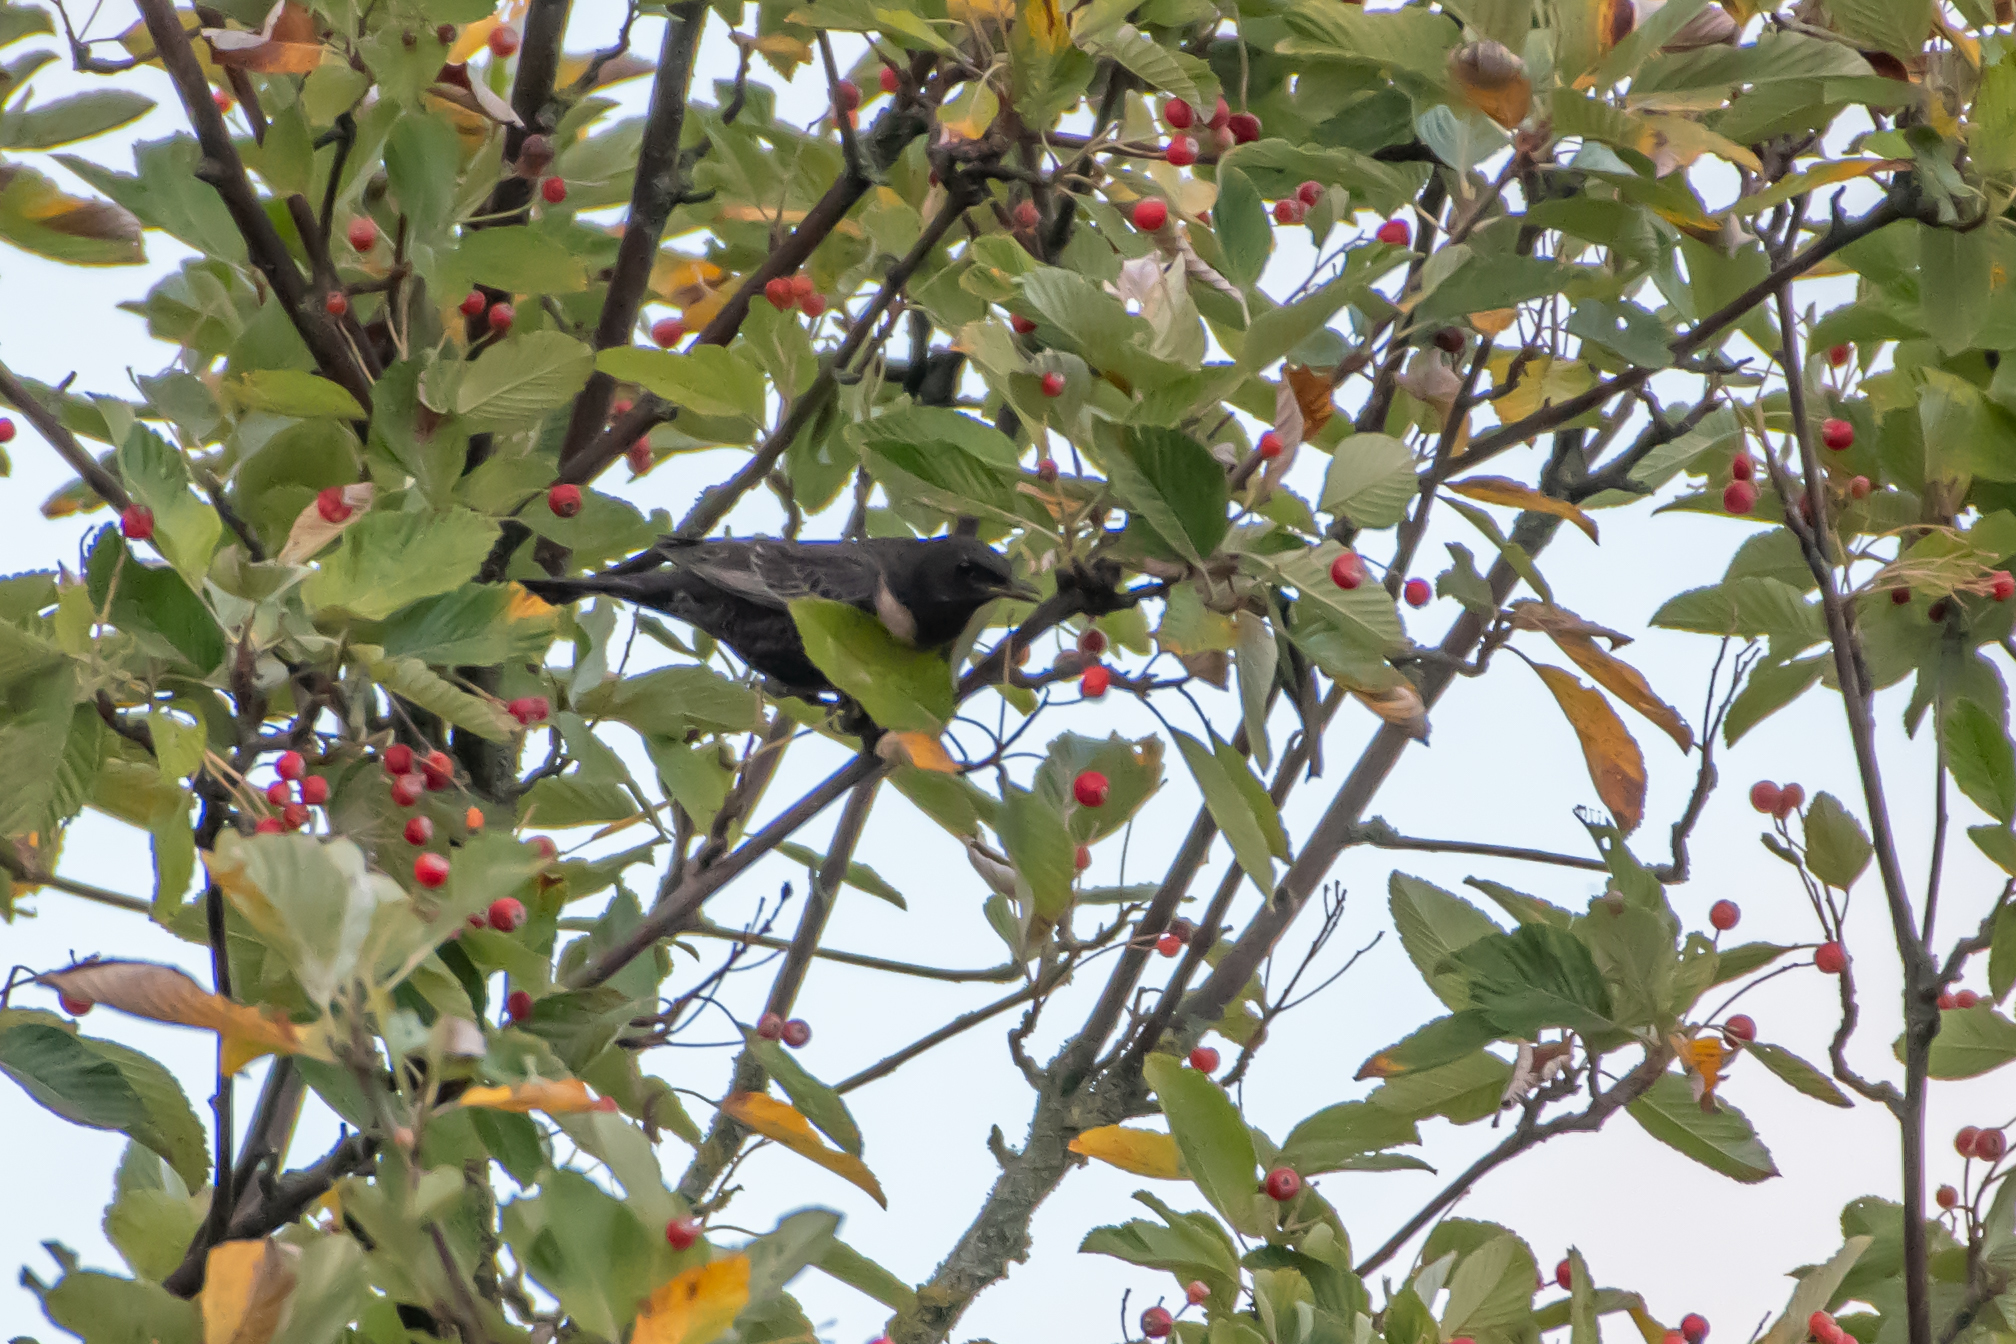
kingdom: Animalia
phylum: Chordata
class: Aves
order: Passeriformes
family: Turdidae
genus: Turdus
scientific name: Turdus torquatus
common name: Ring ouzel
